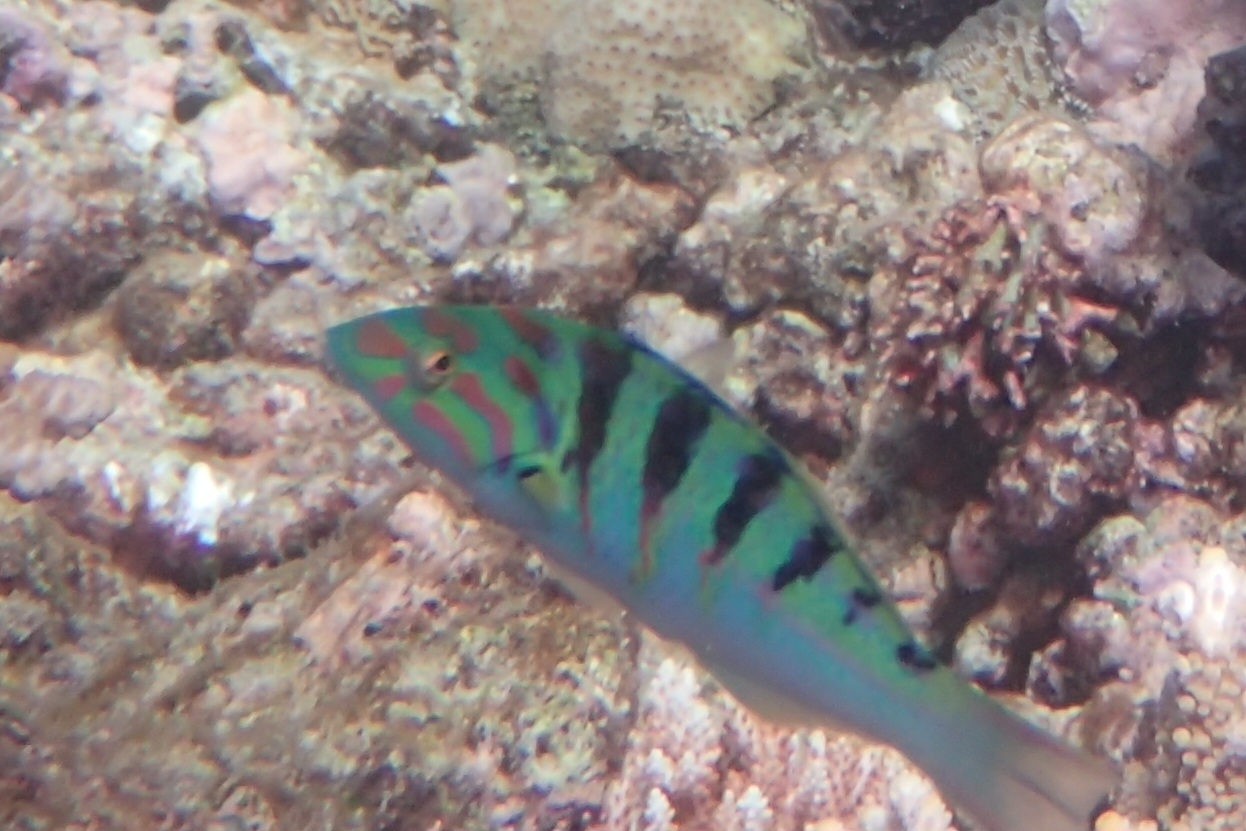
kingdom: Animalia
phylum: Chordata
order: Perciformes
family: Labridae
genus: Thalassoma
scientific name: Thalassoma hardwicke
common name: Sixbar wrasse
